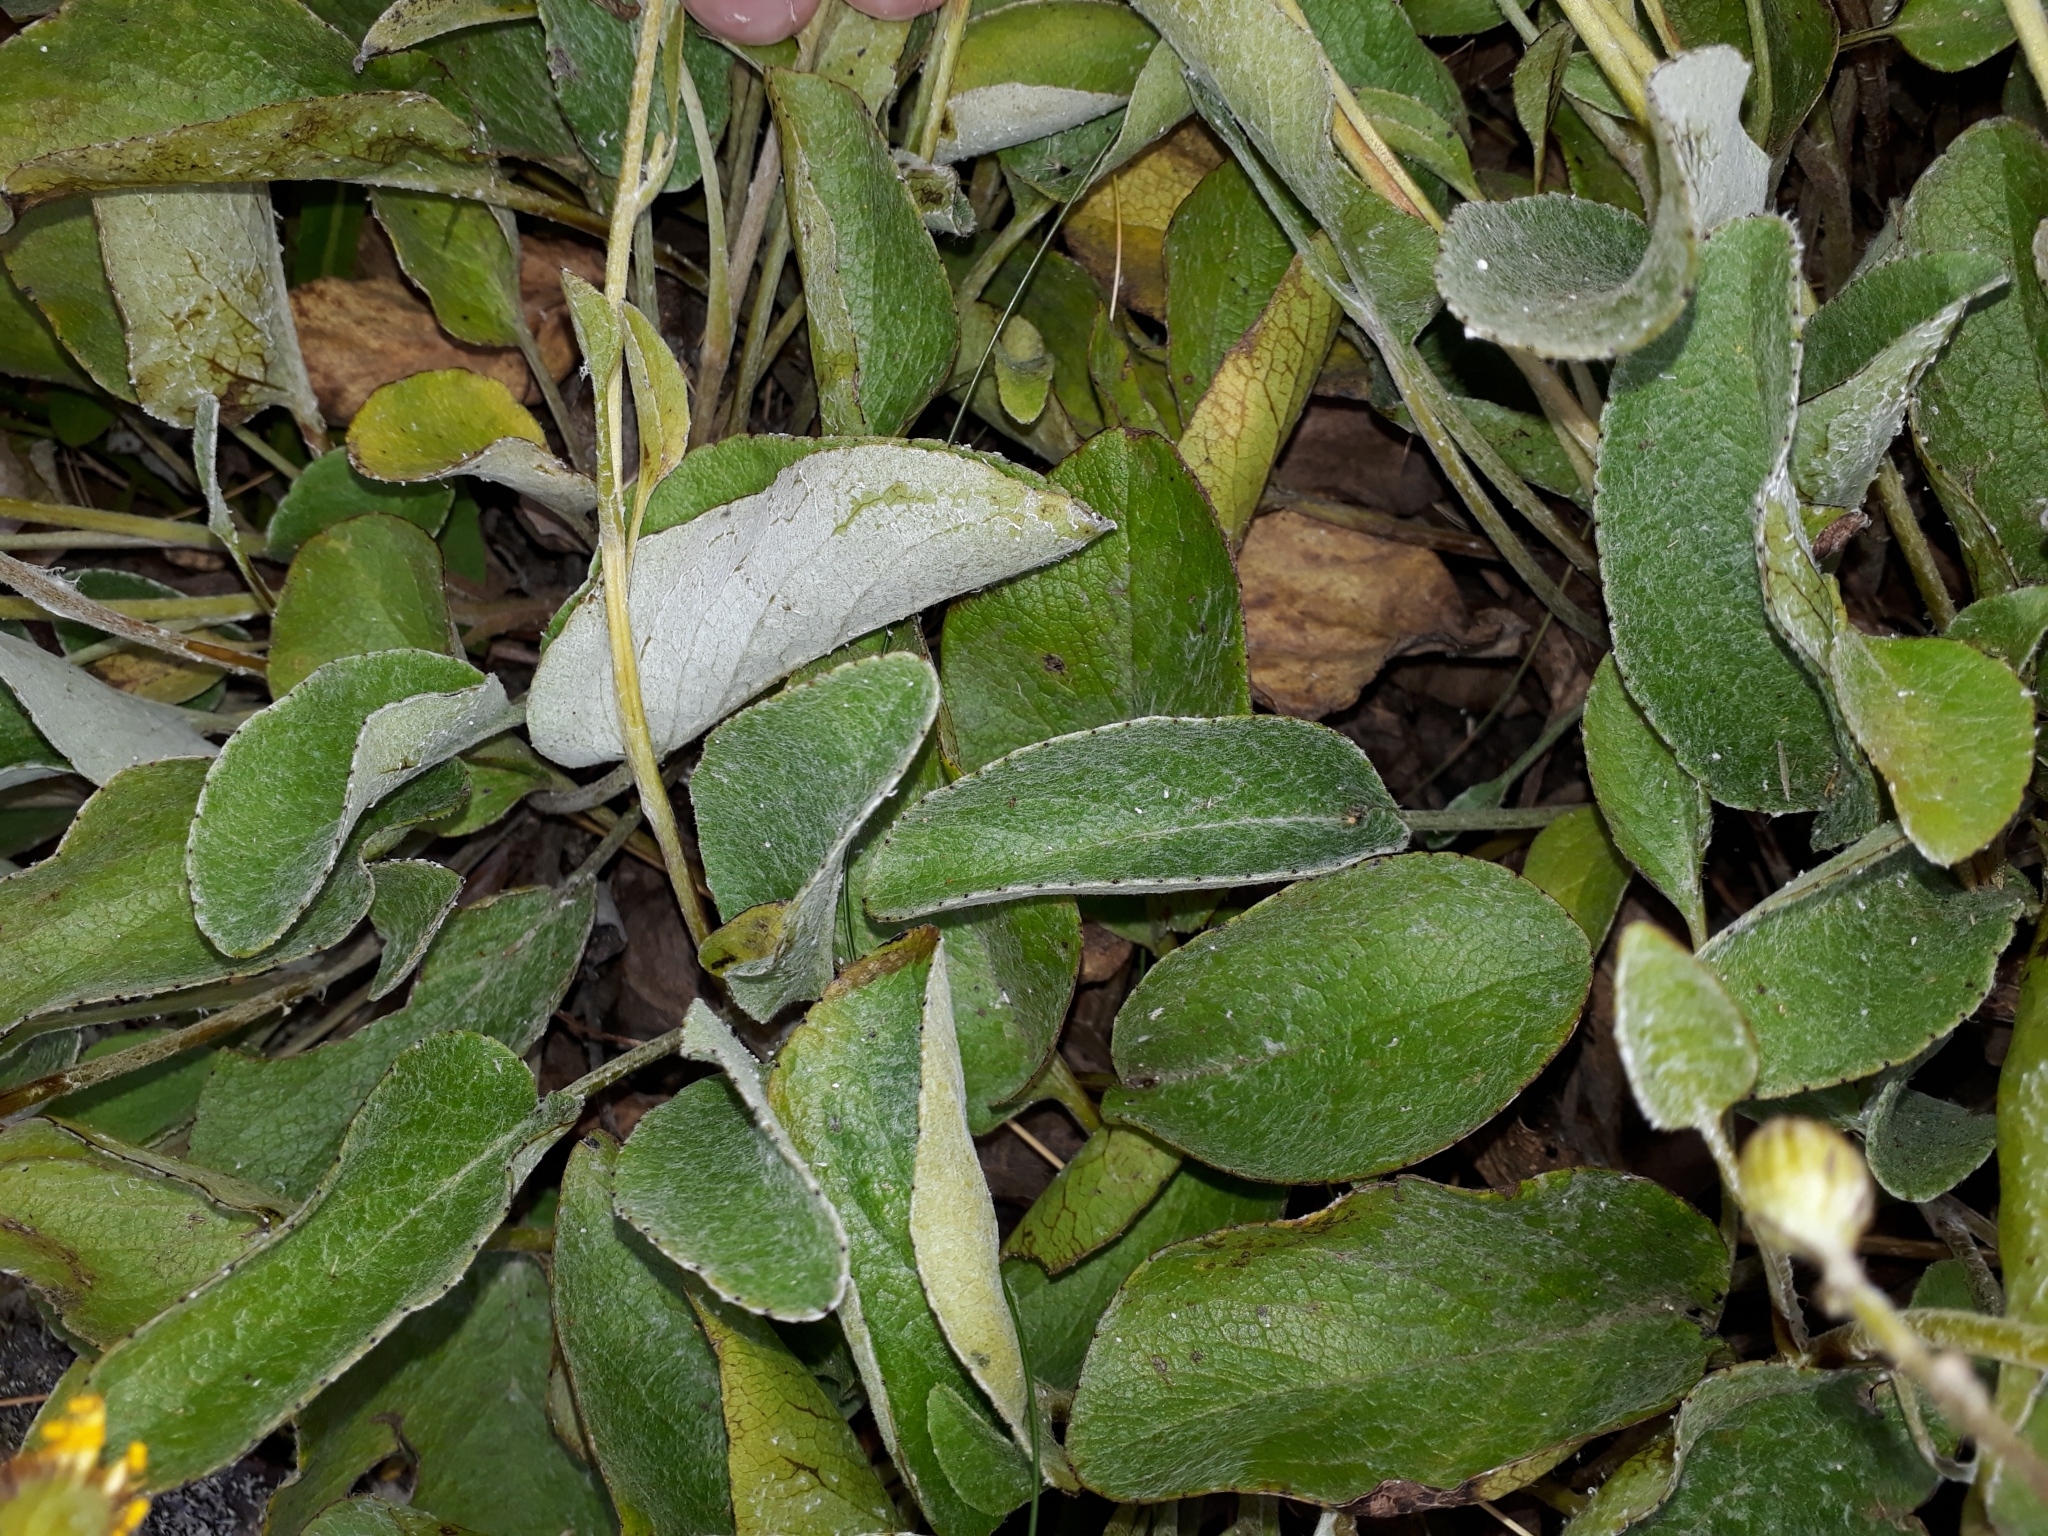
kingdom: Plantae
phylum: Tracheophyta
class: Magnoliopsida
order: Asterales
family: Asteraceae
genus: Brachyglottis
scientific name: Brachyglottis lagopus
